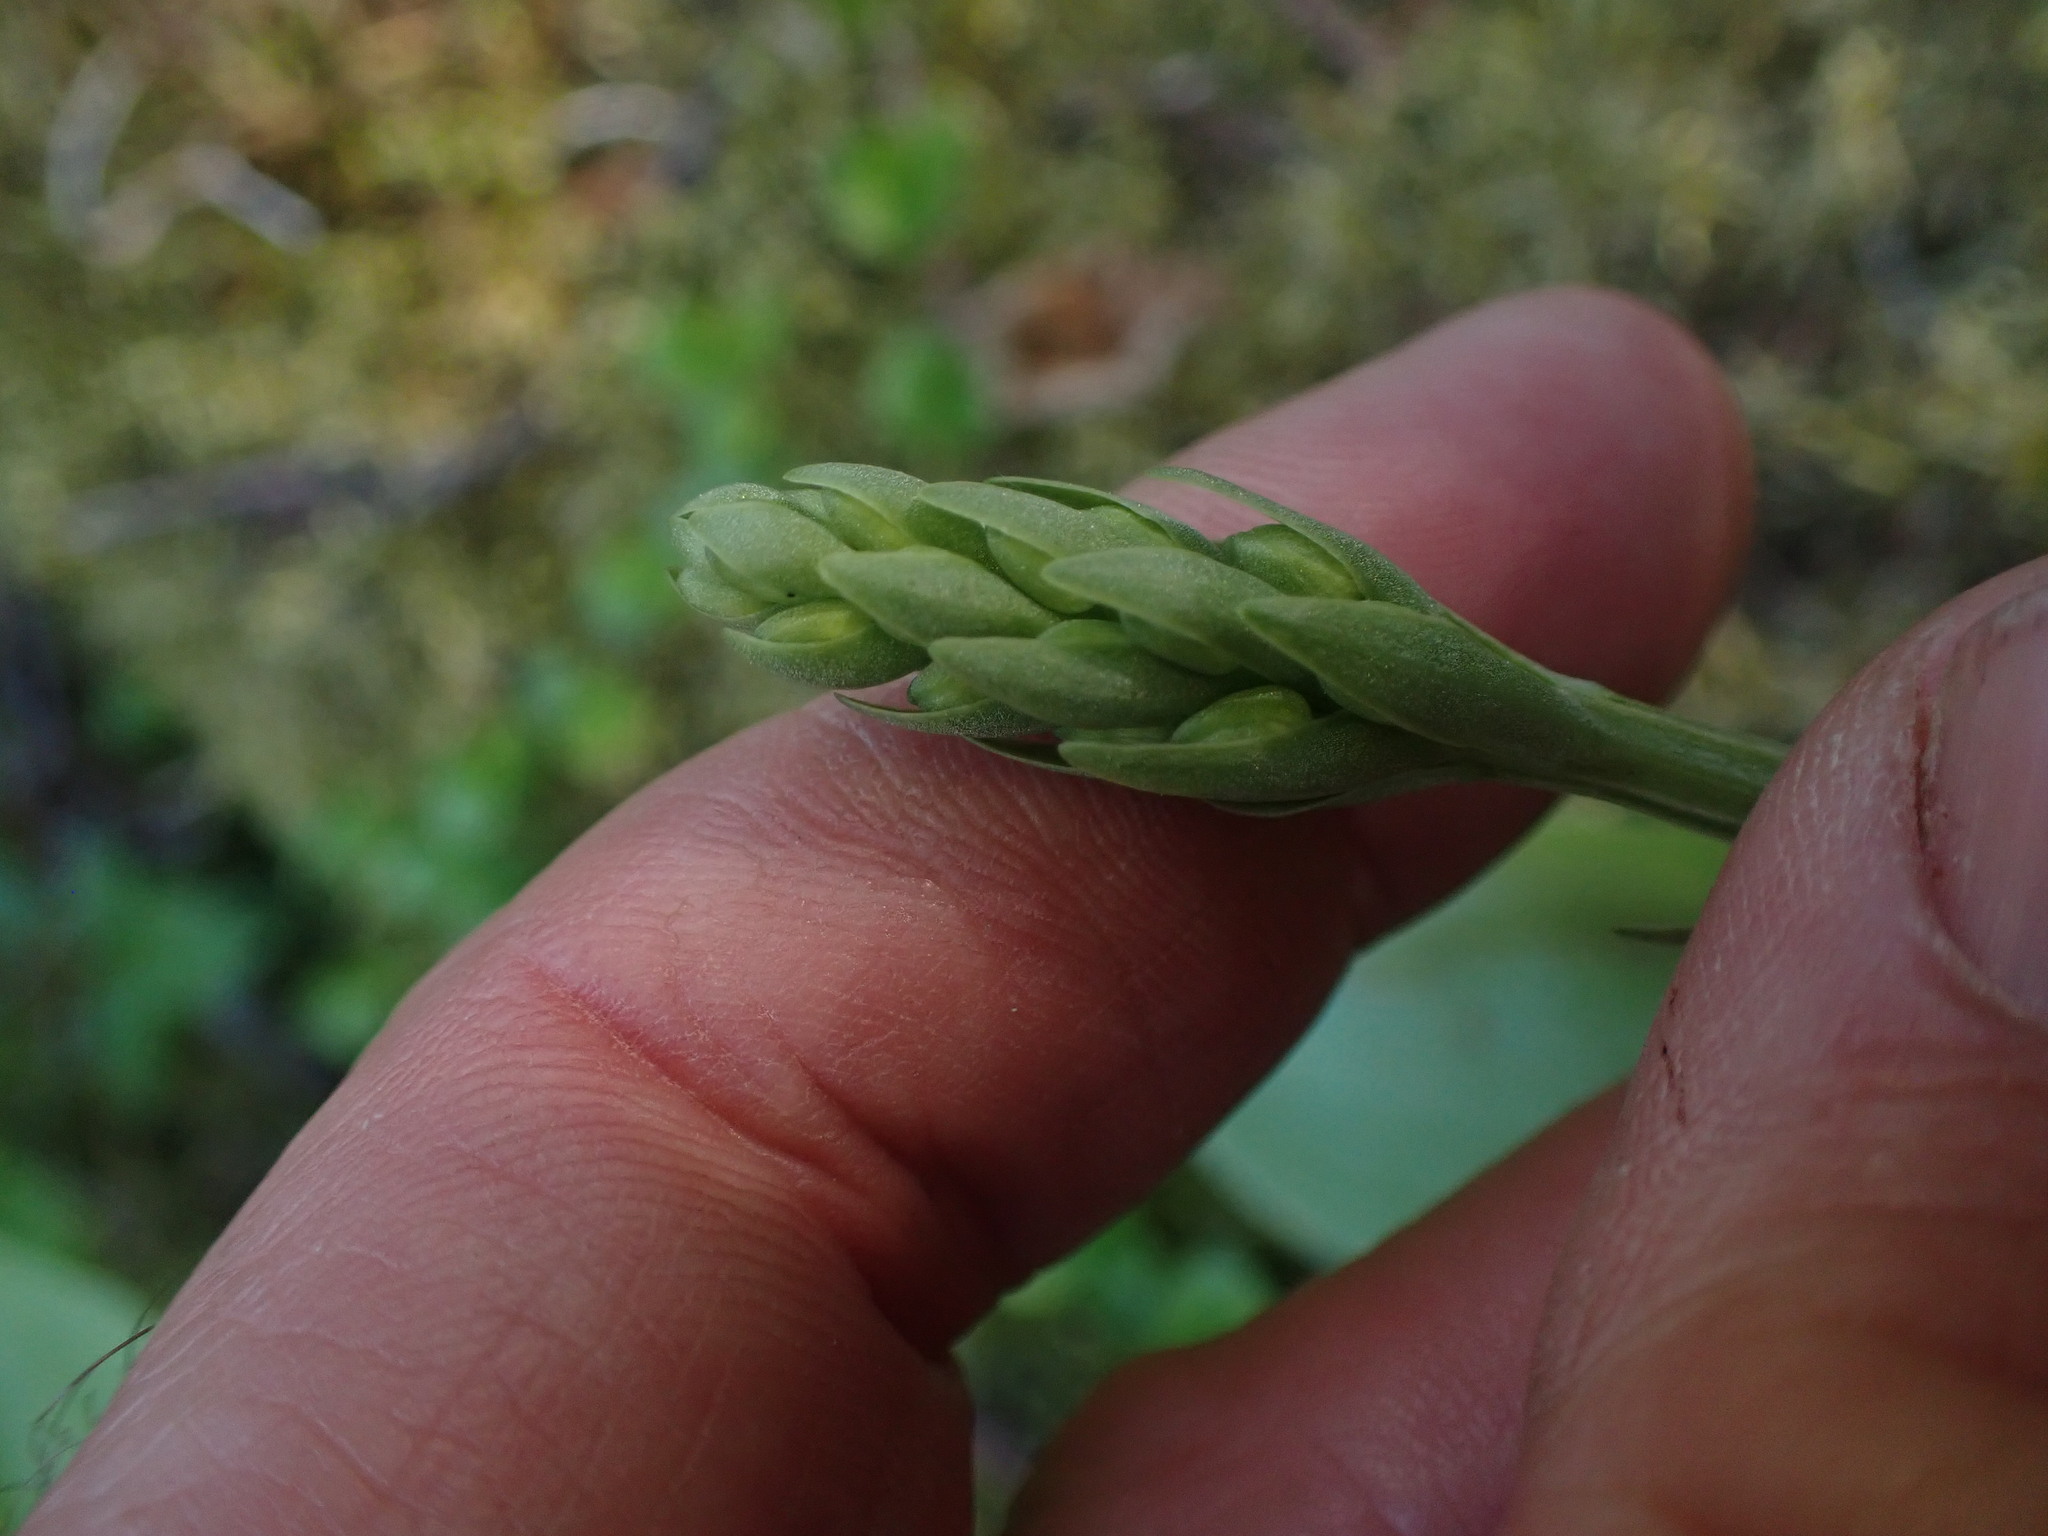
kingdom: Plantae
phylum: Tracheophyta
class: Liliopsida
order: Asparagales
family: Orchidaceae
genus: Platanthera
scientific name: Platanthera orbiculata
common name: Large round-leaved orchid
